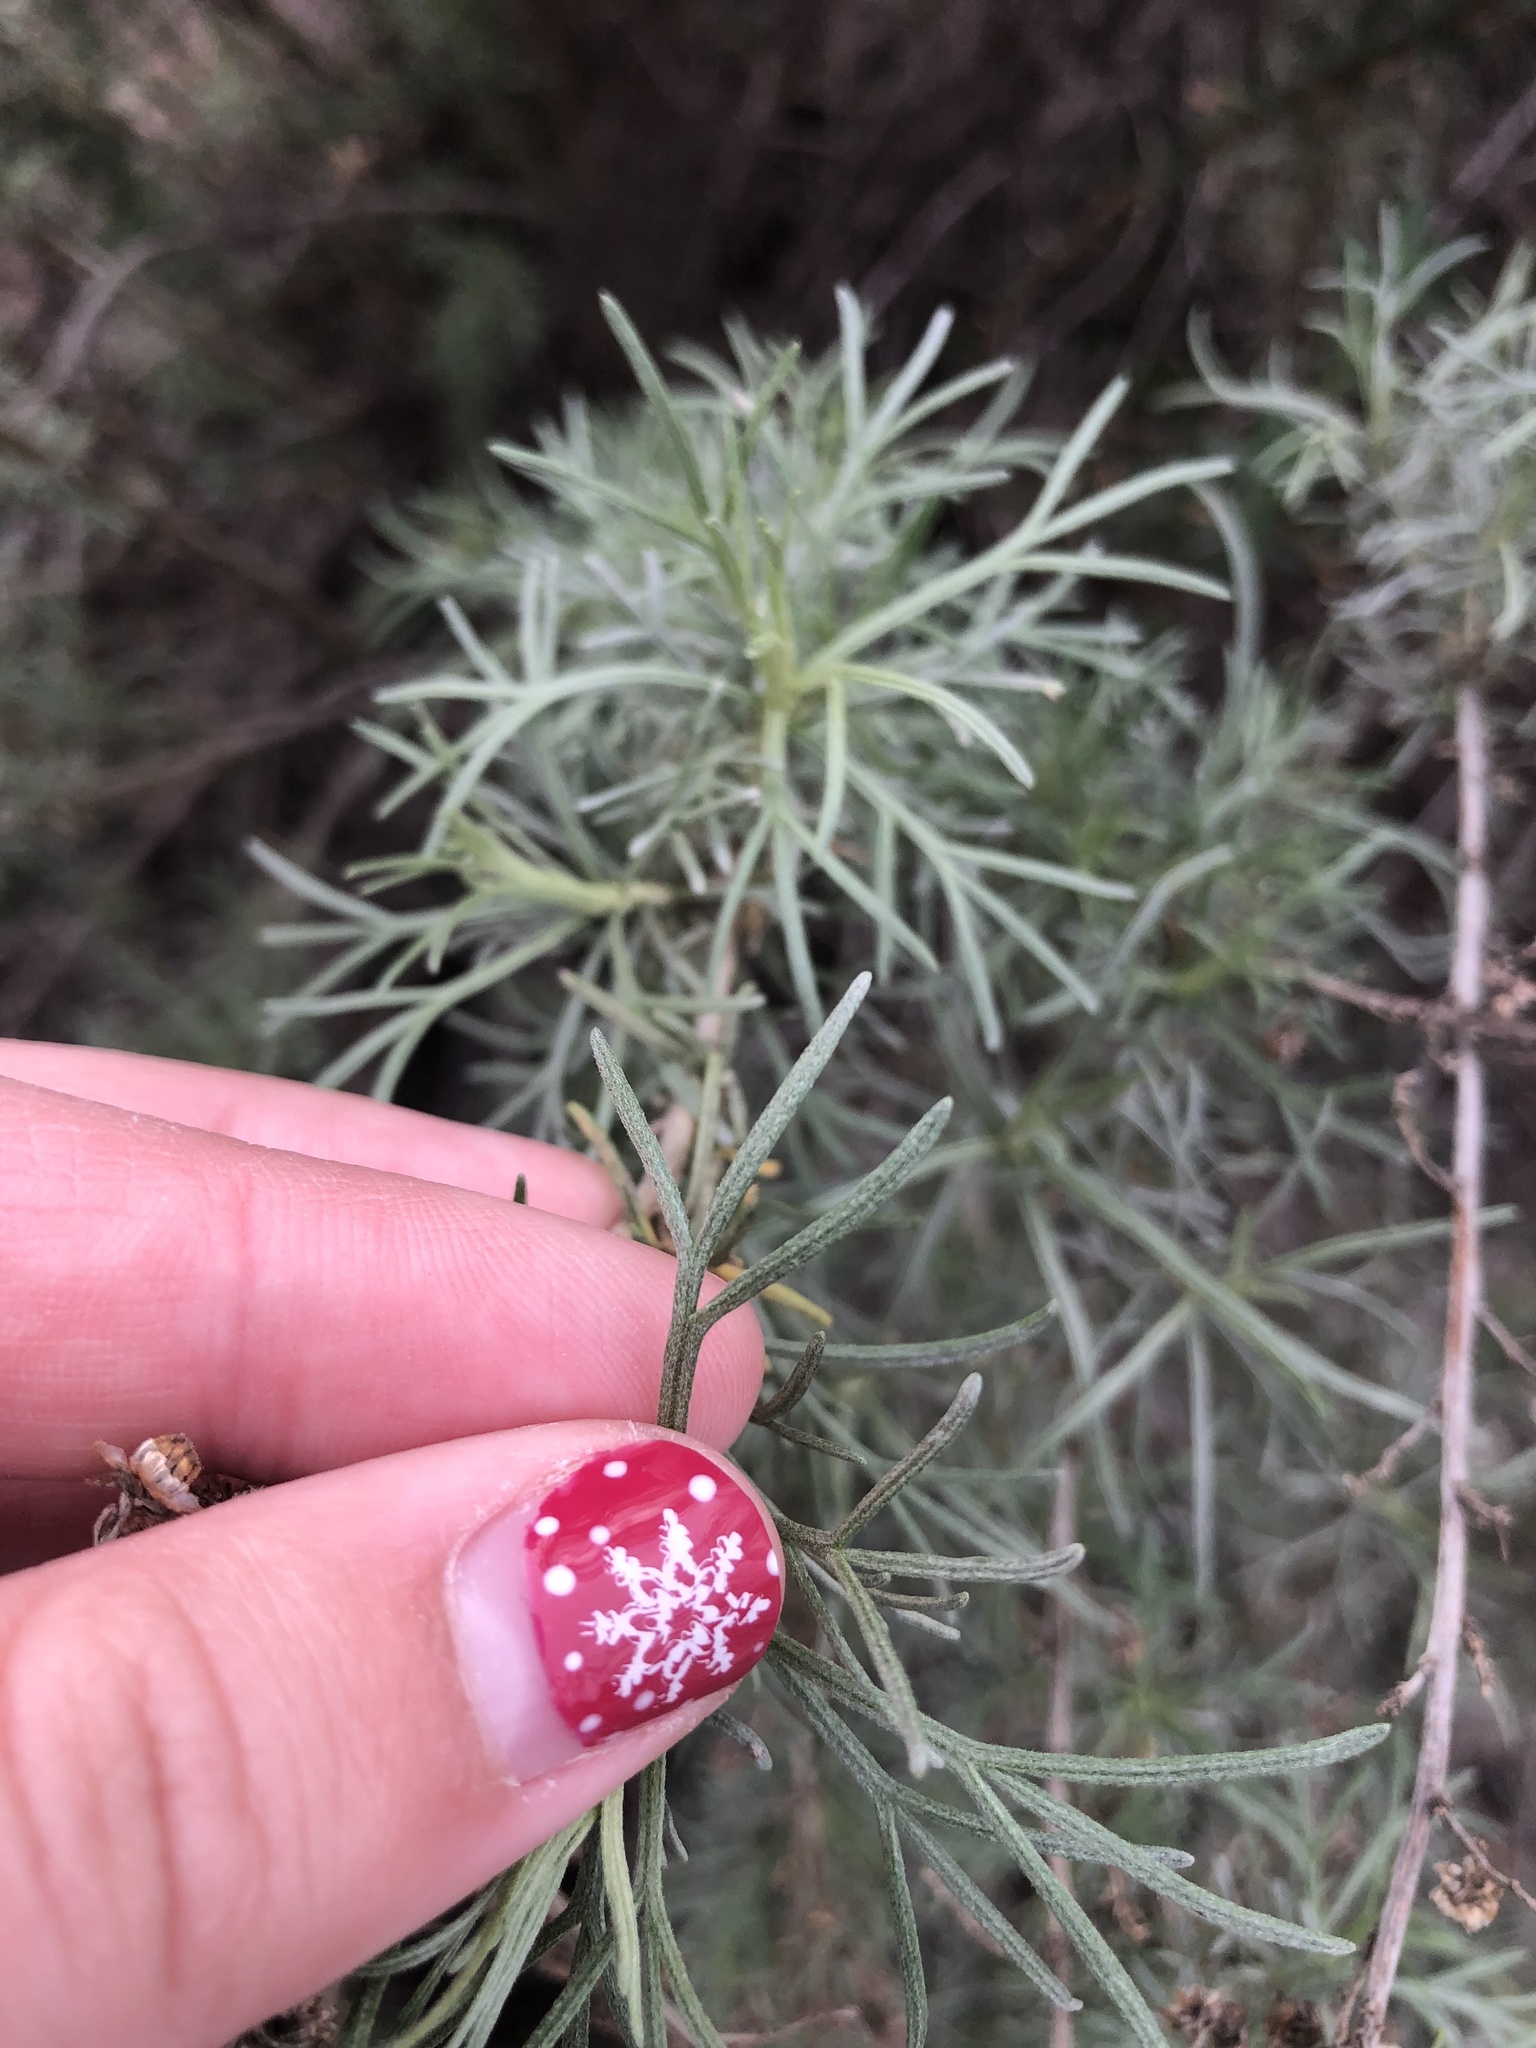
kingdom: Plantae
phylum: Tracheophyta
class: Magnoliopsida
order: Asterales
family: Asteraceae
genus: Artemisia
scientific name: Artemisia californica
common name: California sagebrush
